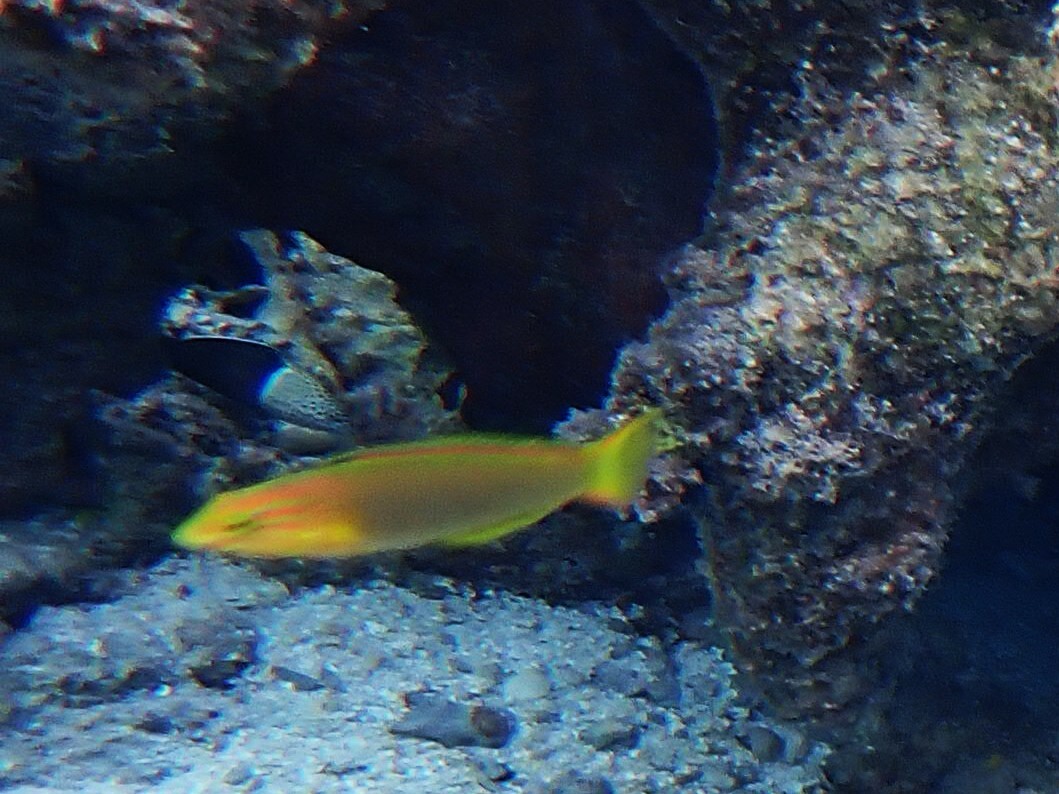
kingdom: Animalia
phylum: Chordata
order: Perciformes
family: Labridae
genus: Thalassoma
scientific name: Thalassoma lutescens
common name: Green moon wrasse
